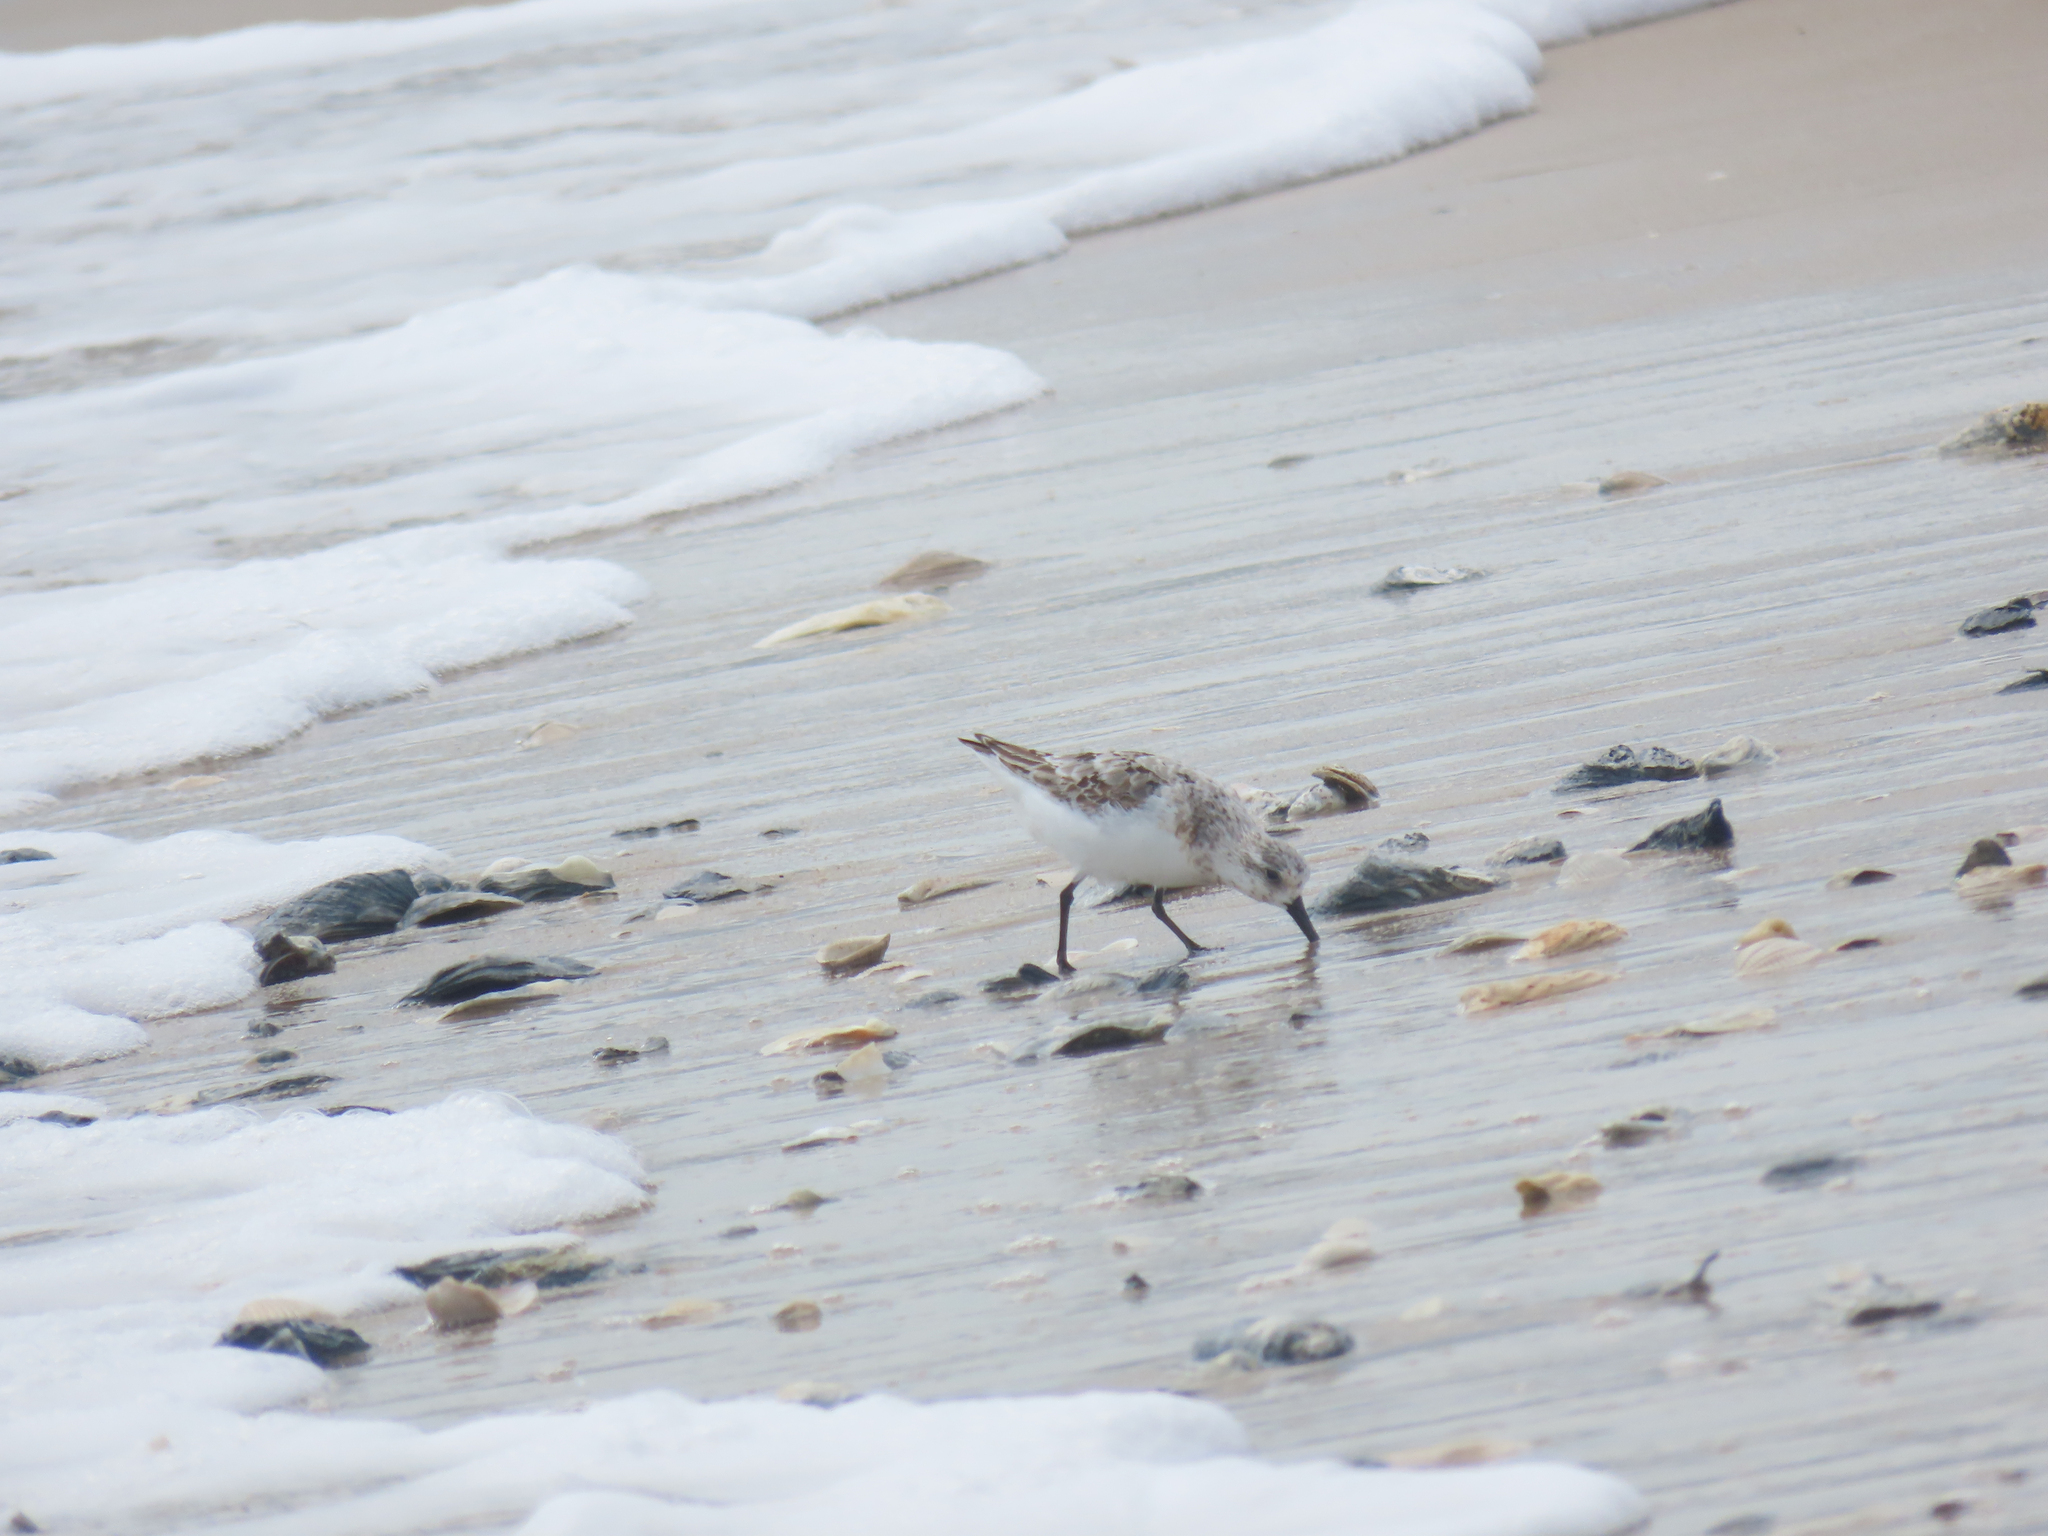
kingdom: Animalia
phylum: Chordata
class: Aves
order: Charadriiformes
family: Scolopacidae
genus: Calidris
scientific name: Calidris alba
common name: Sanderling
